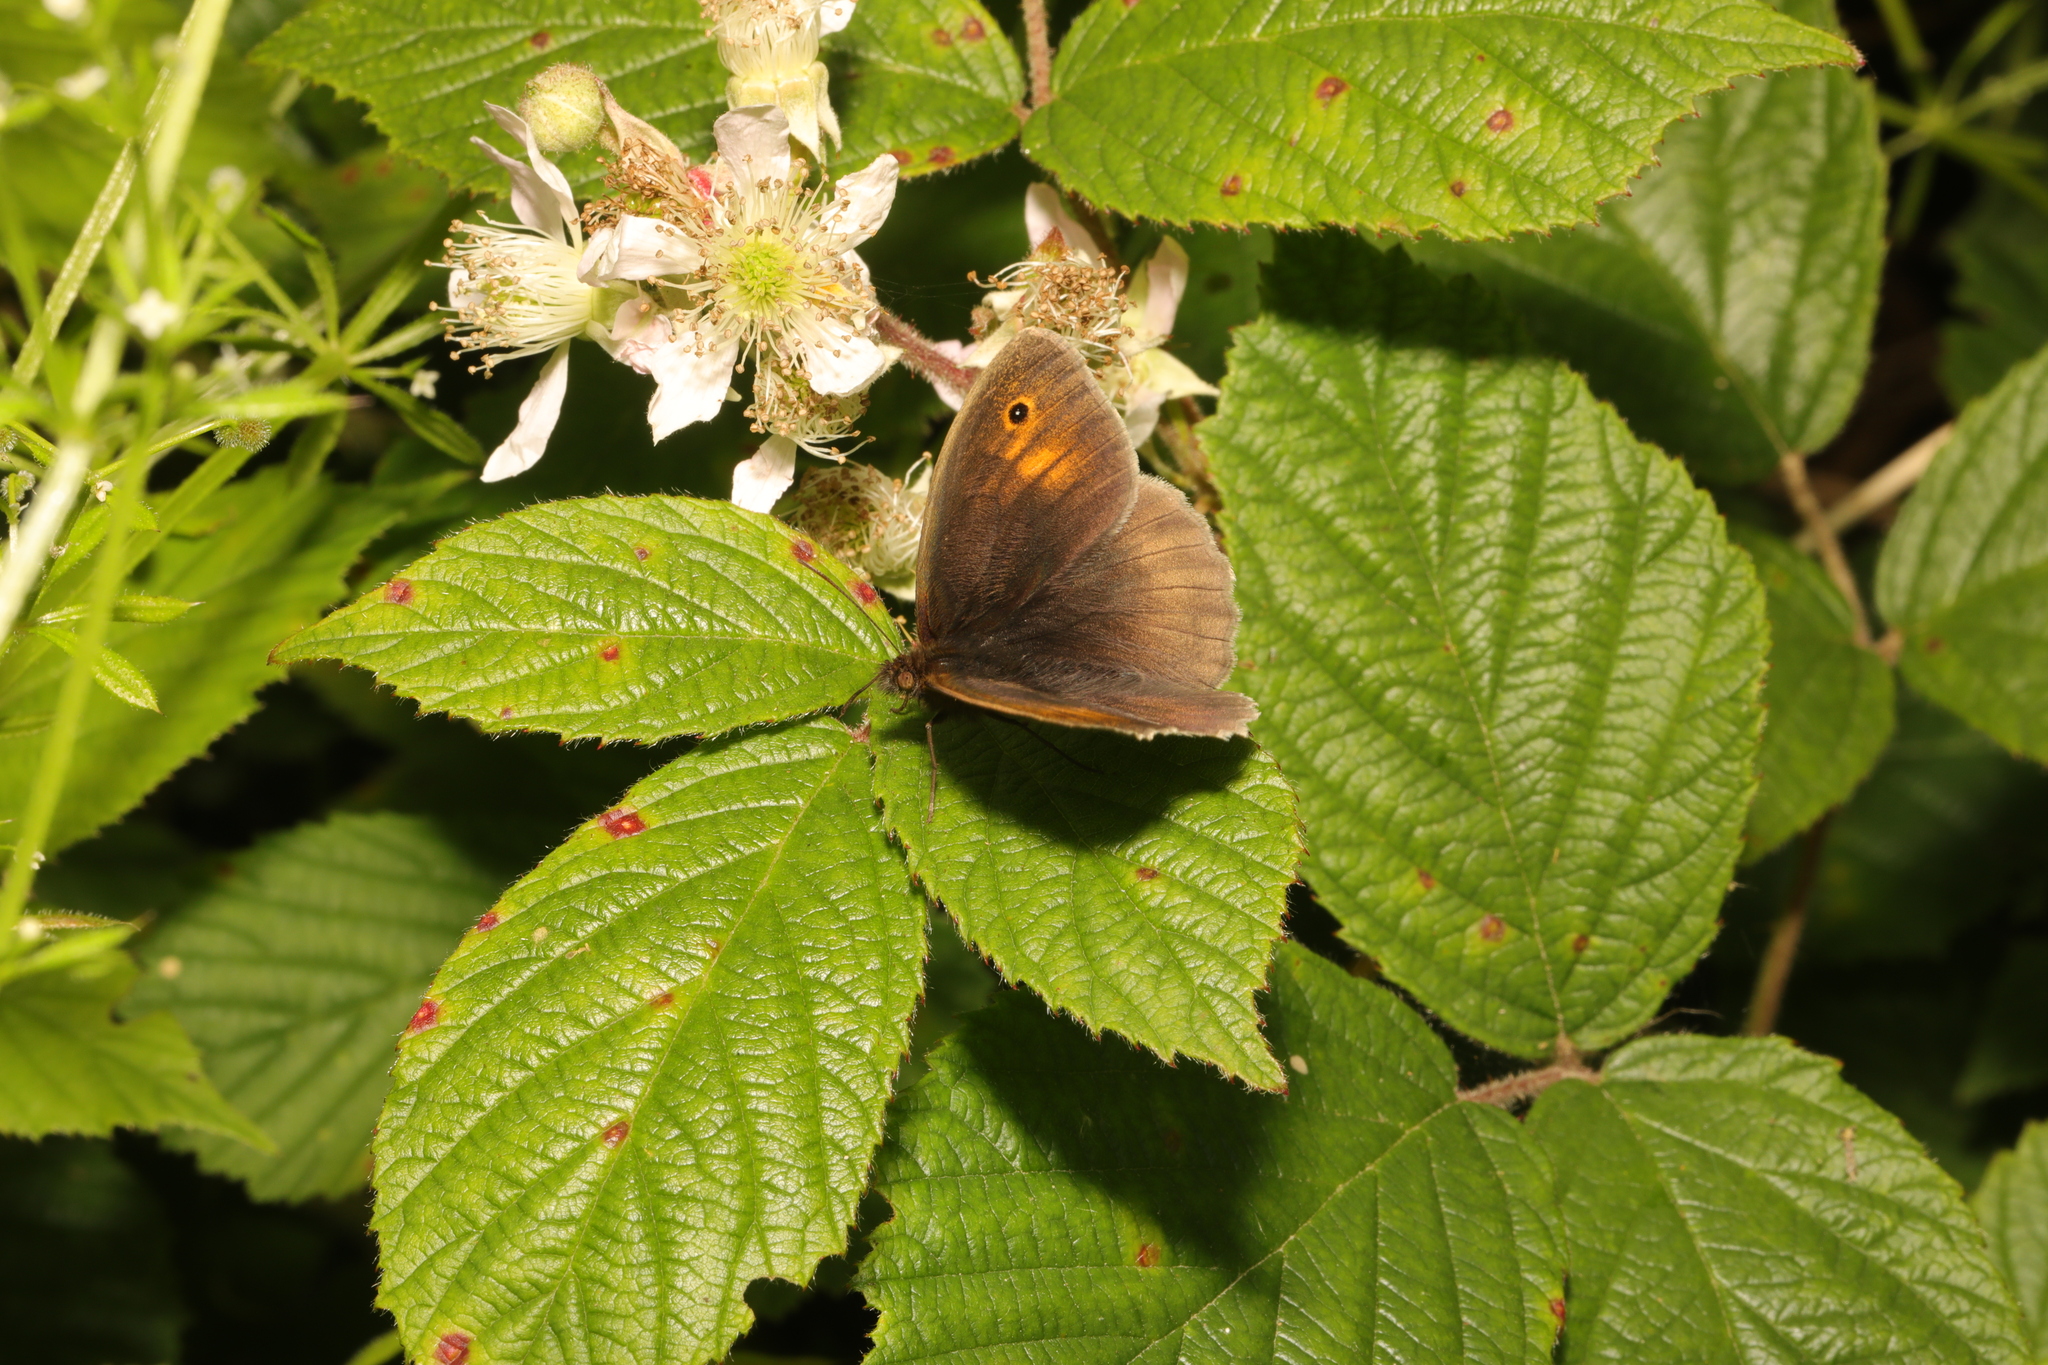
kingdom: Animalia
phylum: Arthropoda
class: Insecta
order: Lepidoptera
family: Nymphalidae
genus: Maniola
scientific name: Maniola jurtina
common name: Meadow brown
